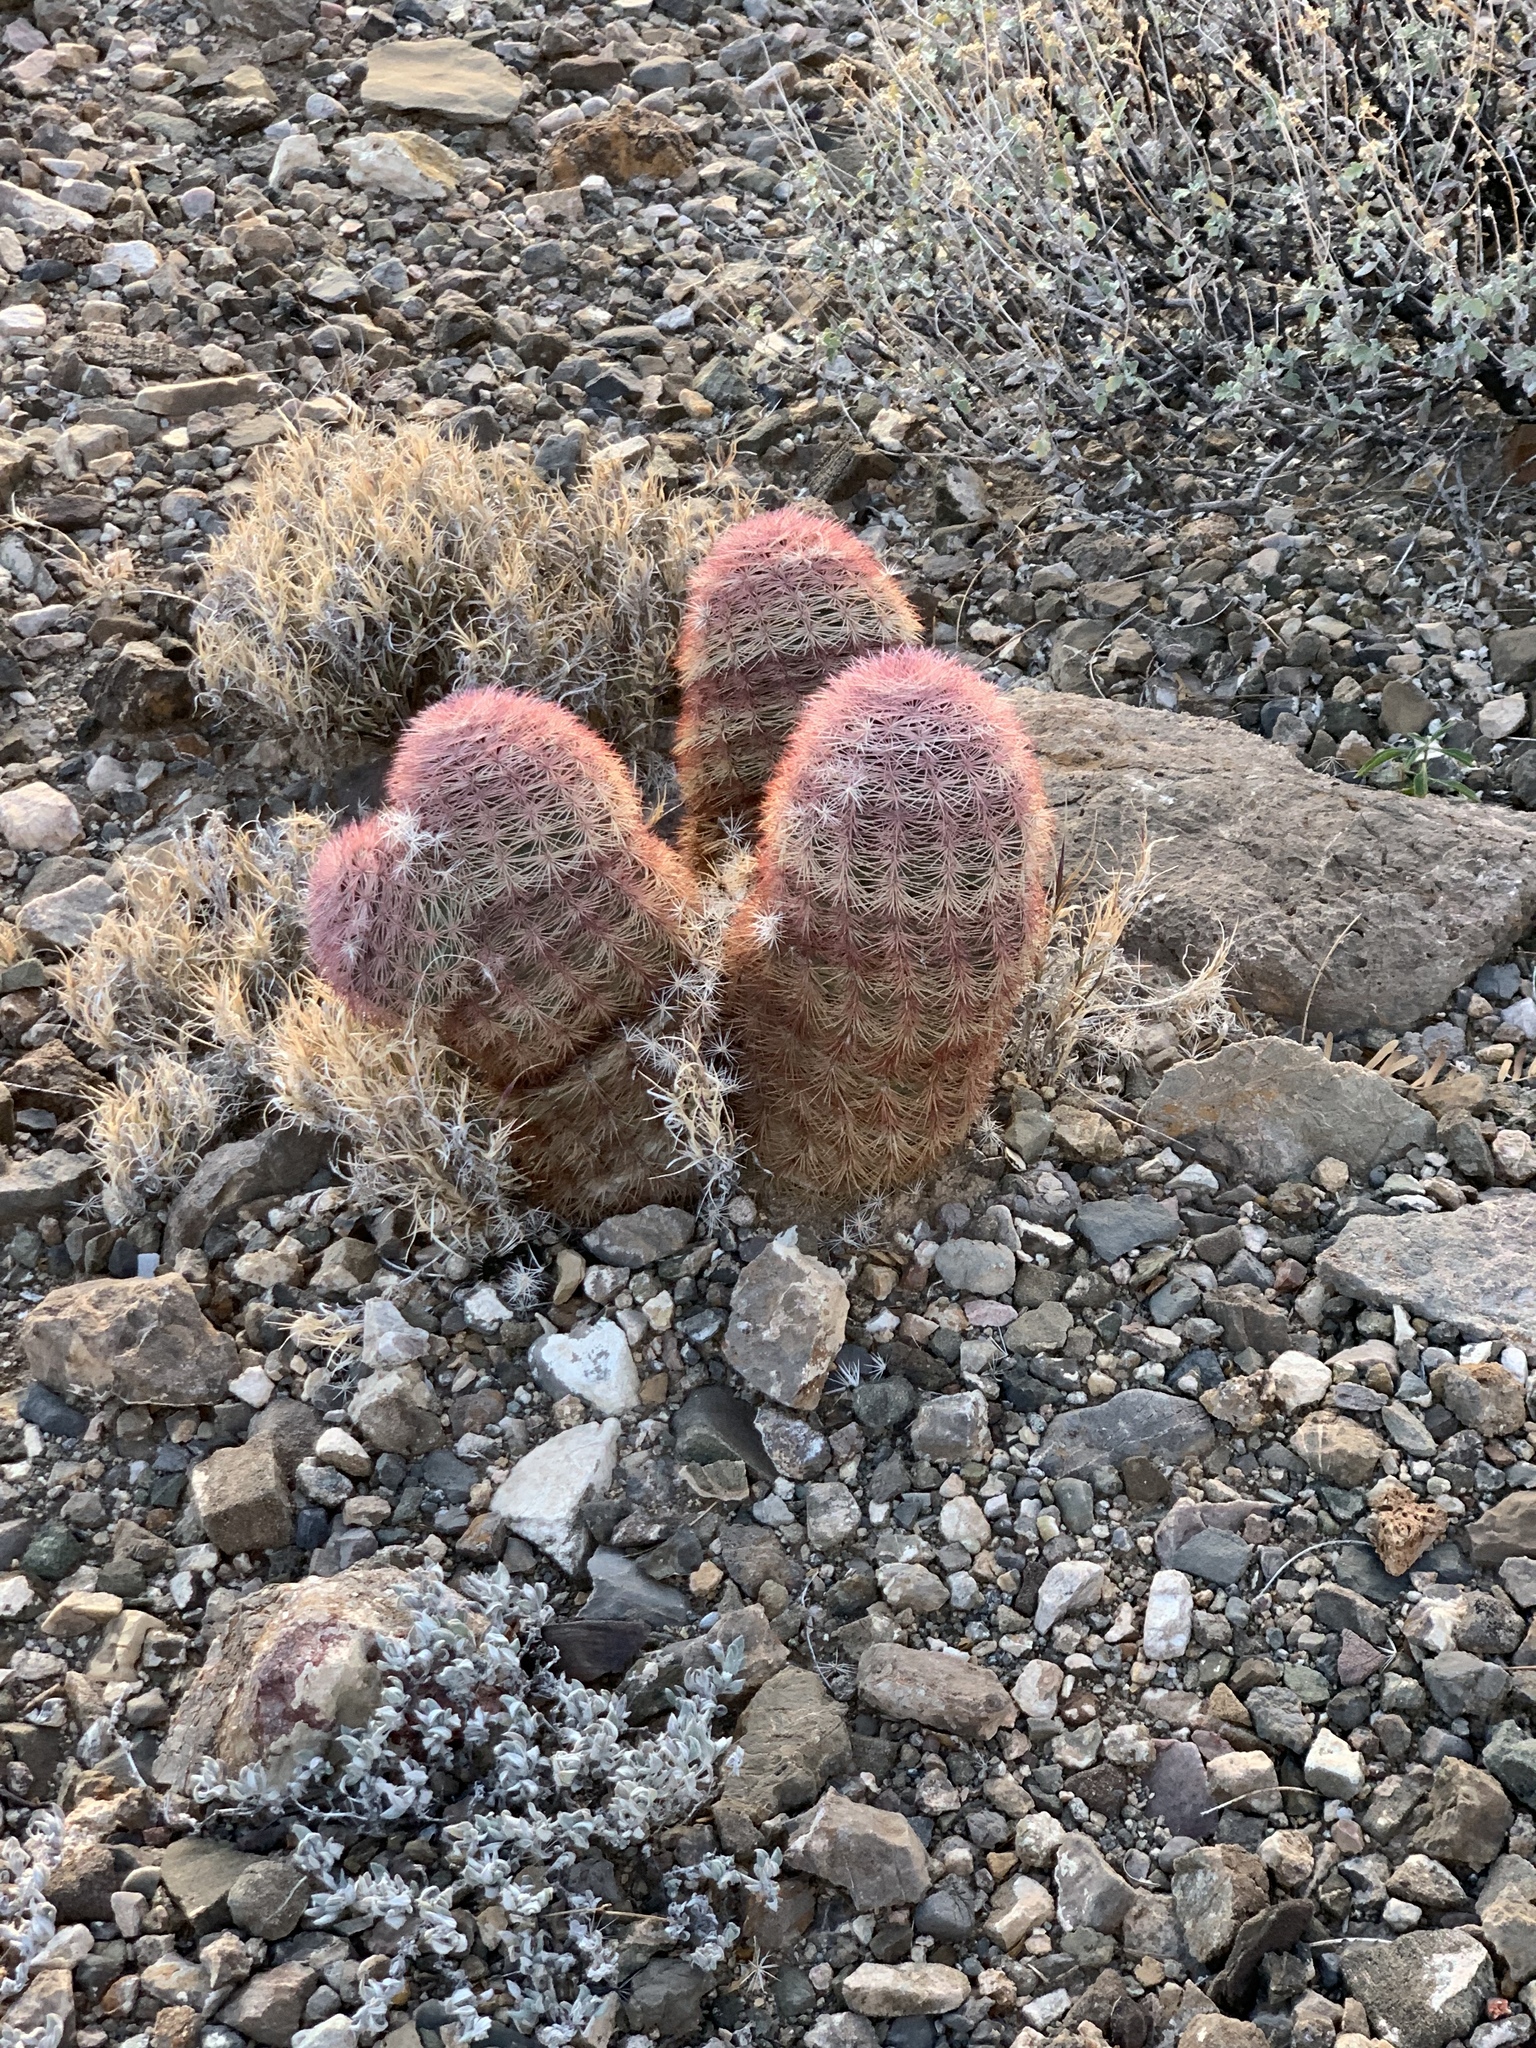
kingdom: Plantae
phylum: Tracheophyta
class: Magnoliopsida
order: Caryophyllales
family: Cactaceae
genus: Echinocereus
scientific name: Echinocereus dasyacanthus
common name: Spiny hedgehog cactus
